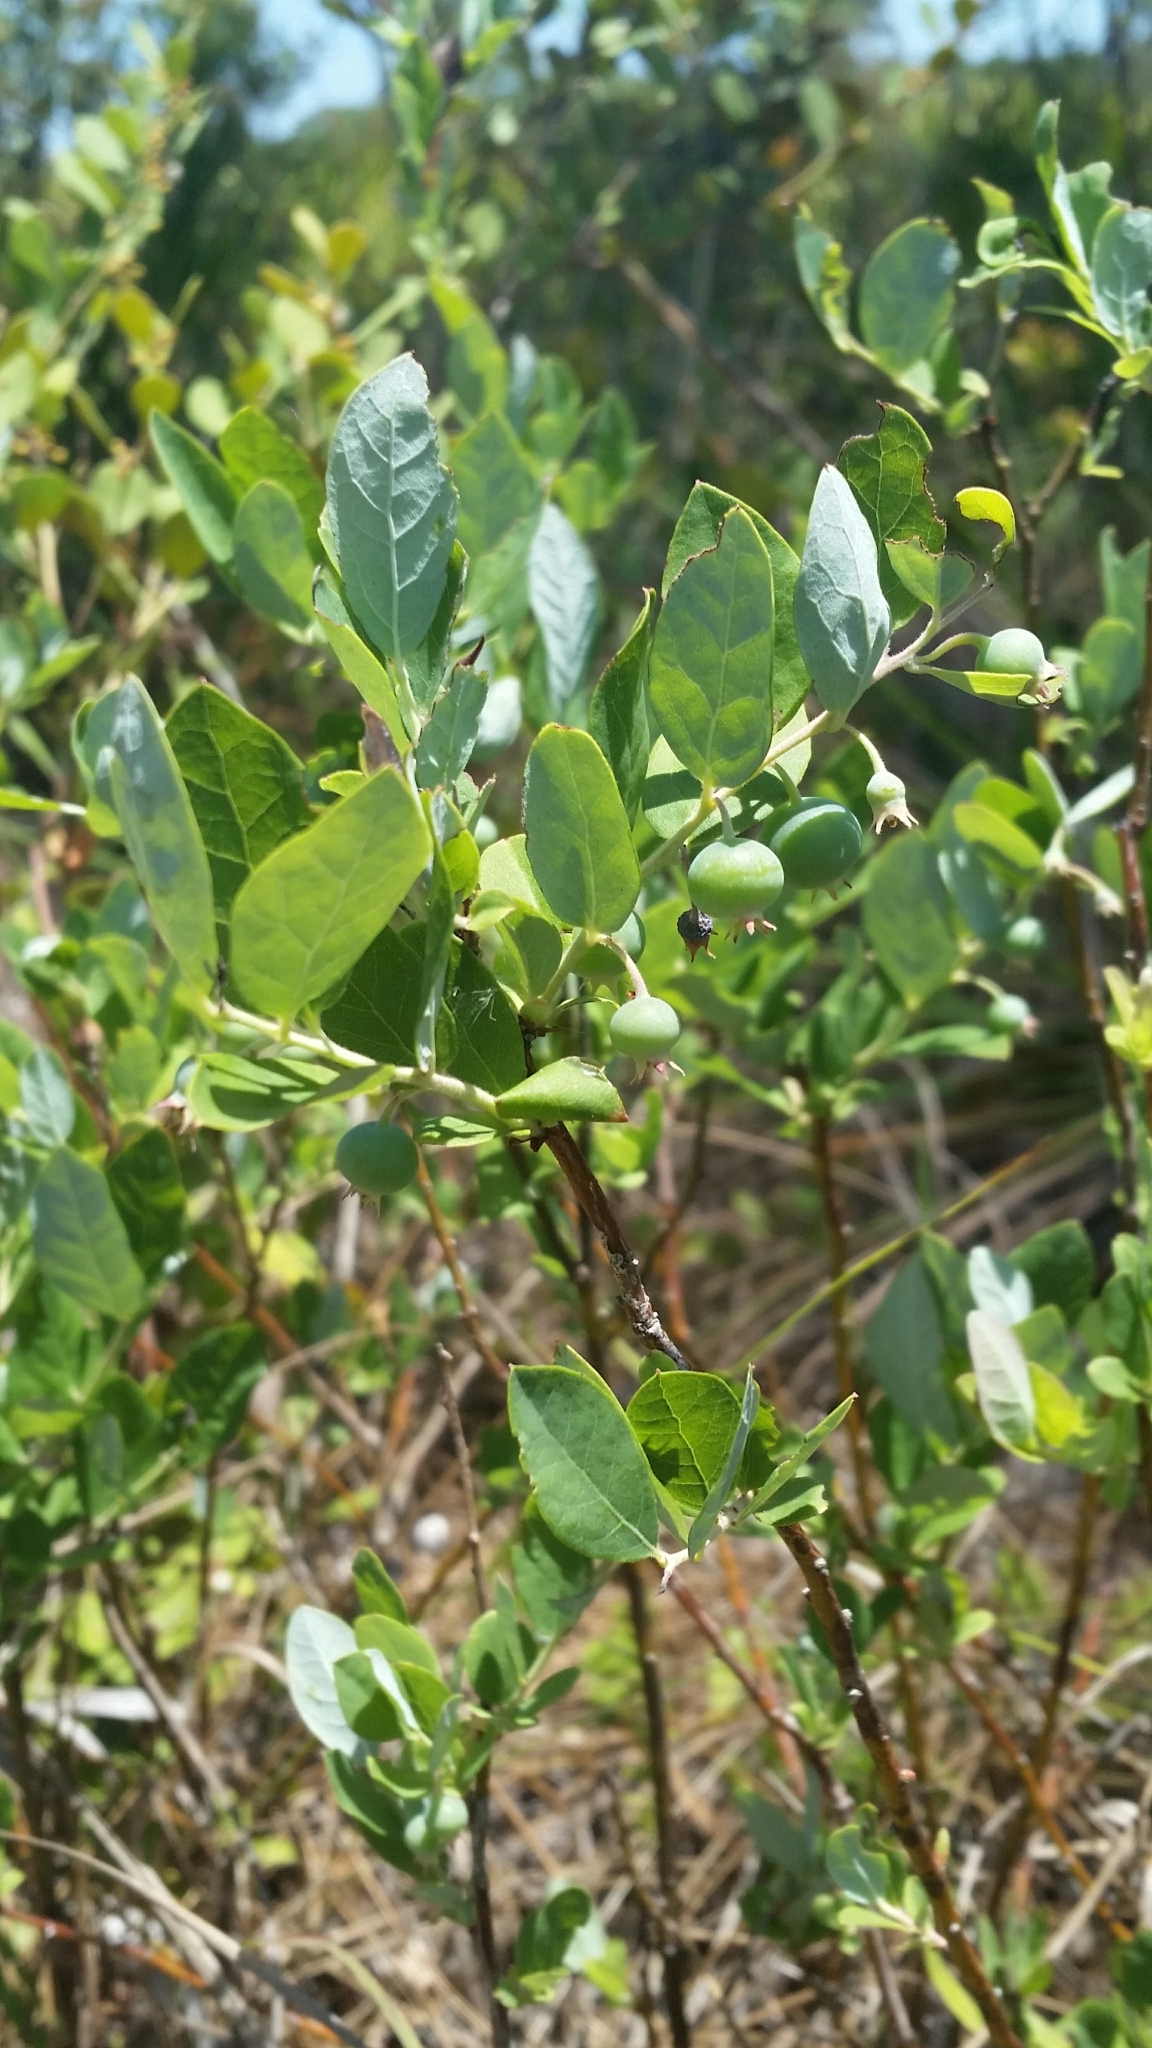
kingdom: Plantae
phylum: Tracheophyta
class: Magnoliopsida
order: Ericales
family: Ericaceae
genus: Vaccinium
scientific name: Vaccinium stamineum
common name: Deerberry
